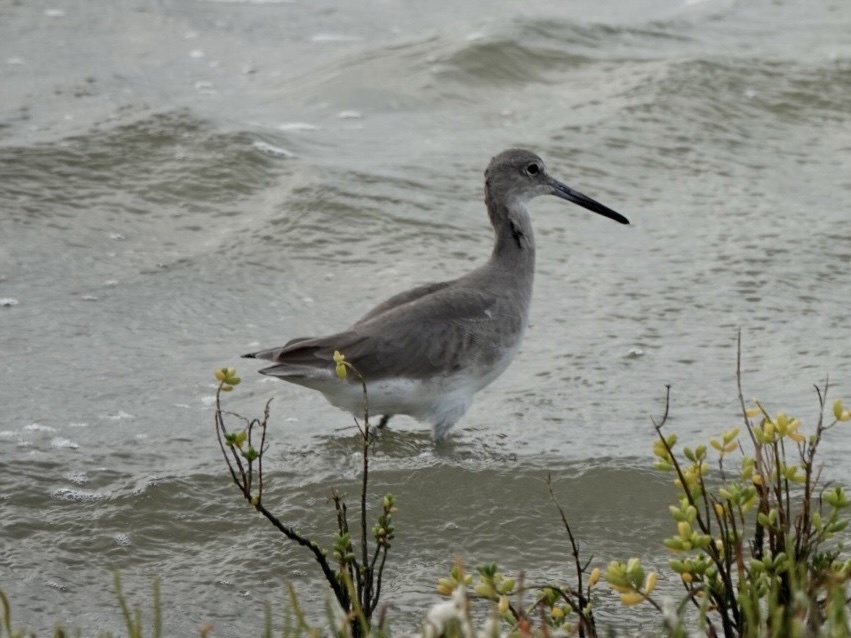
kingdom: Animalia
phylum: Chordata
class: Aves
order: Charadriiformes
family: Scolopacidae
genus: Tringa
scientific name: Tringa semipalmata
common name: Willet
